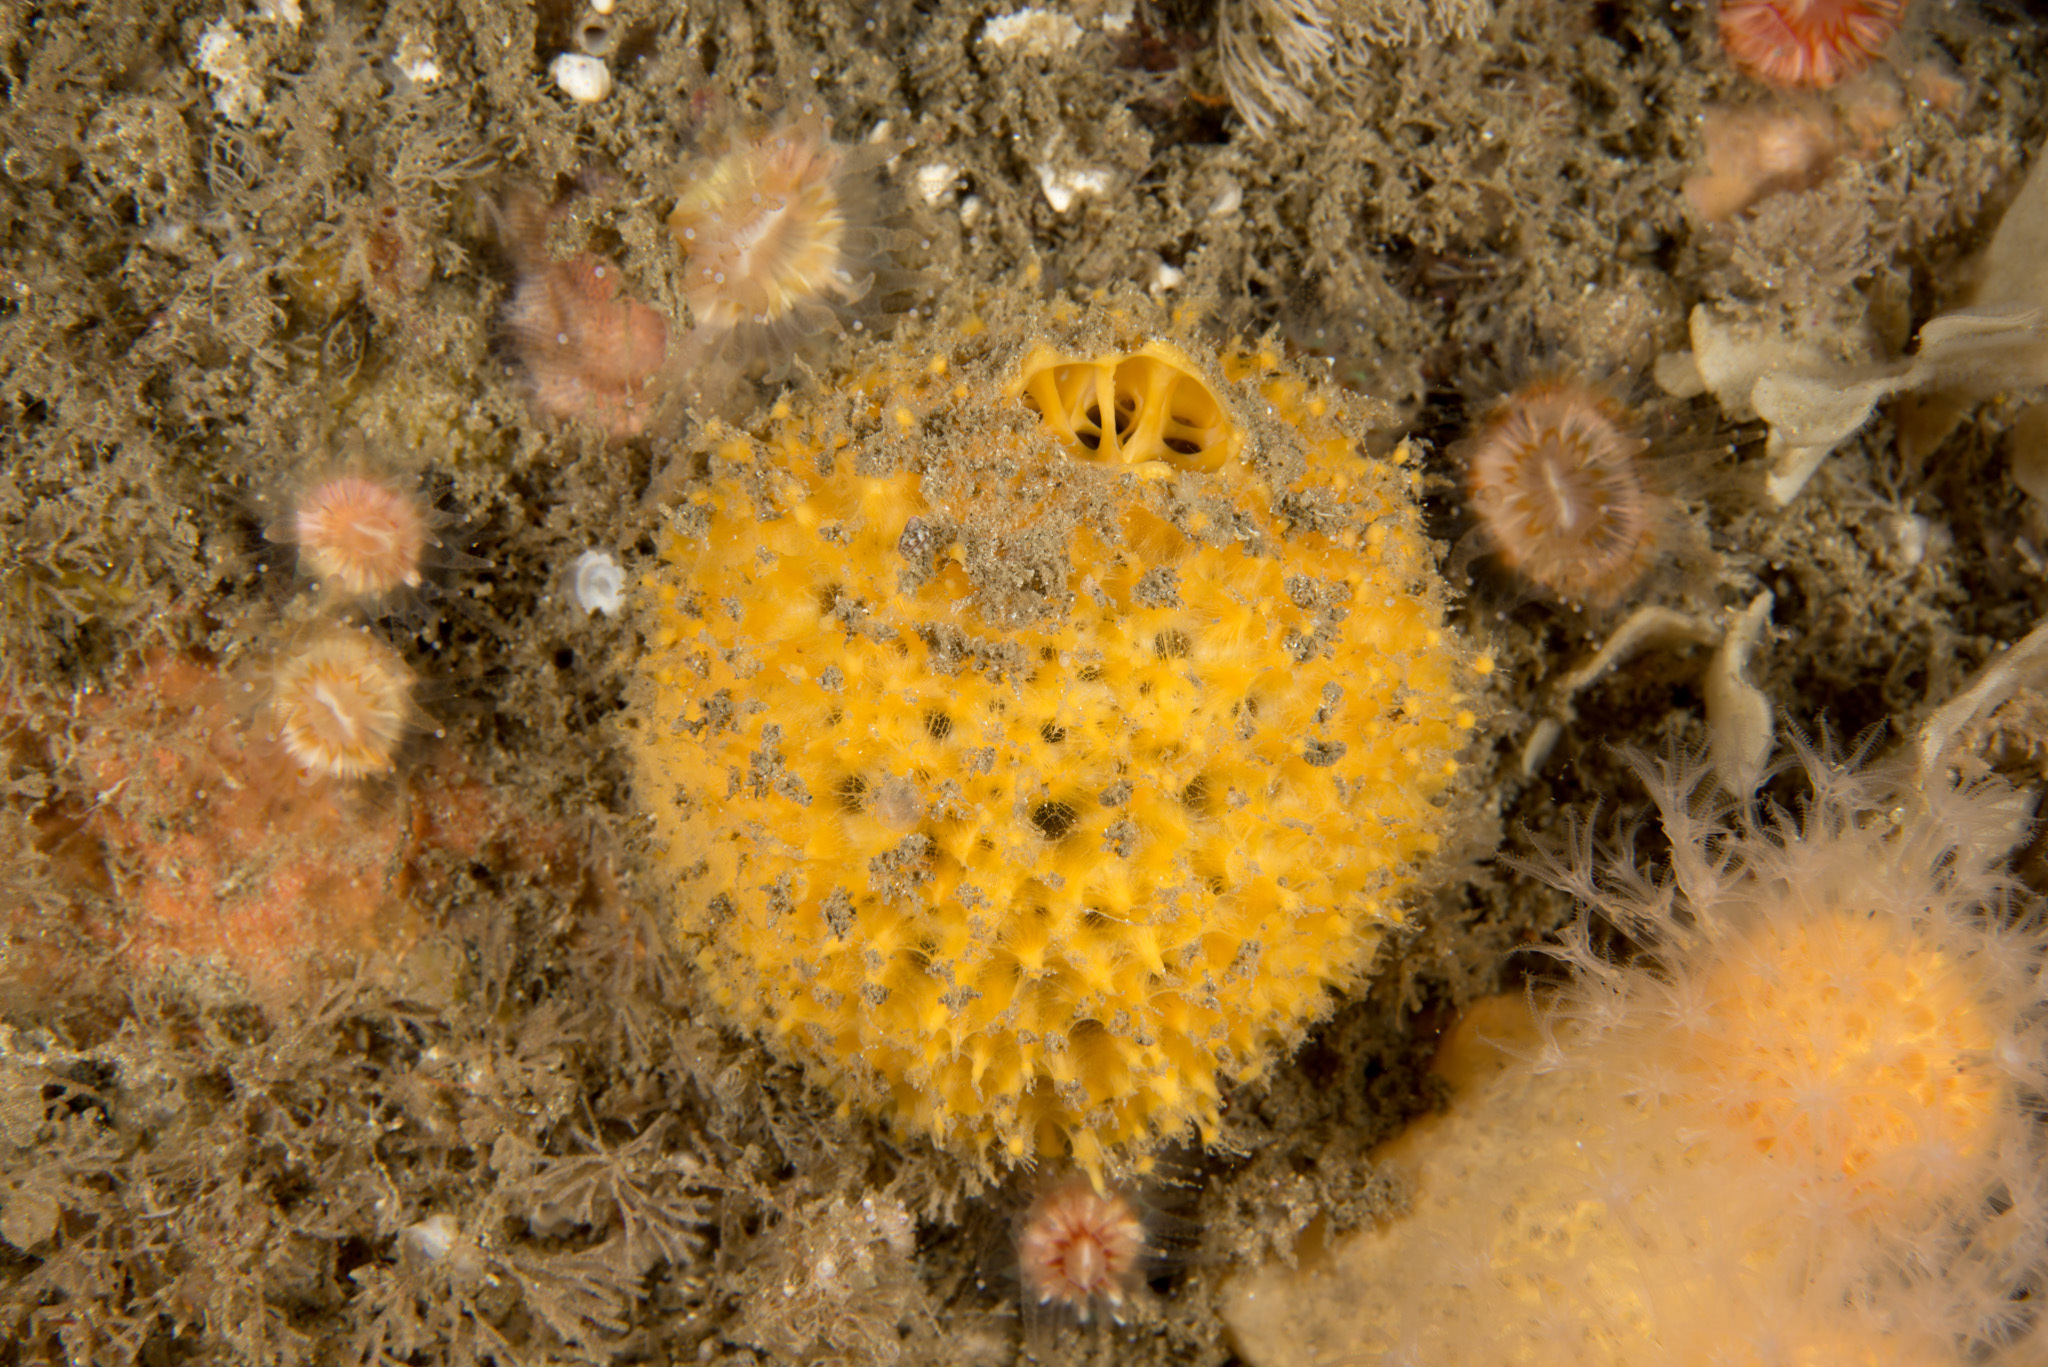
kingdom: Animalia
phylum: Porifera
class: Demospongiae
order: Tethyida
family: Tethyidae
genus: Tethya
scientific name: Tethya citrina
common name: Sea lemon
